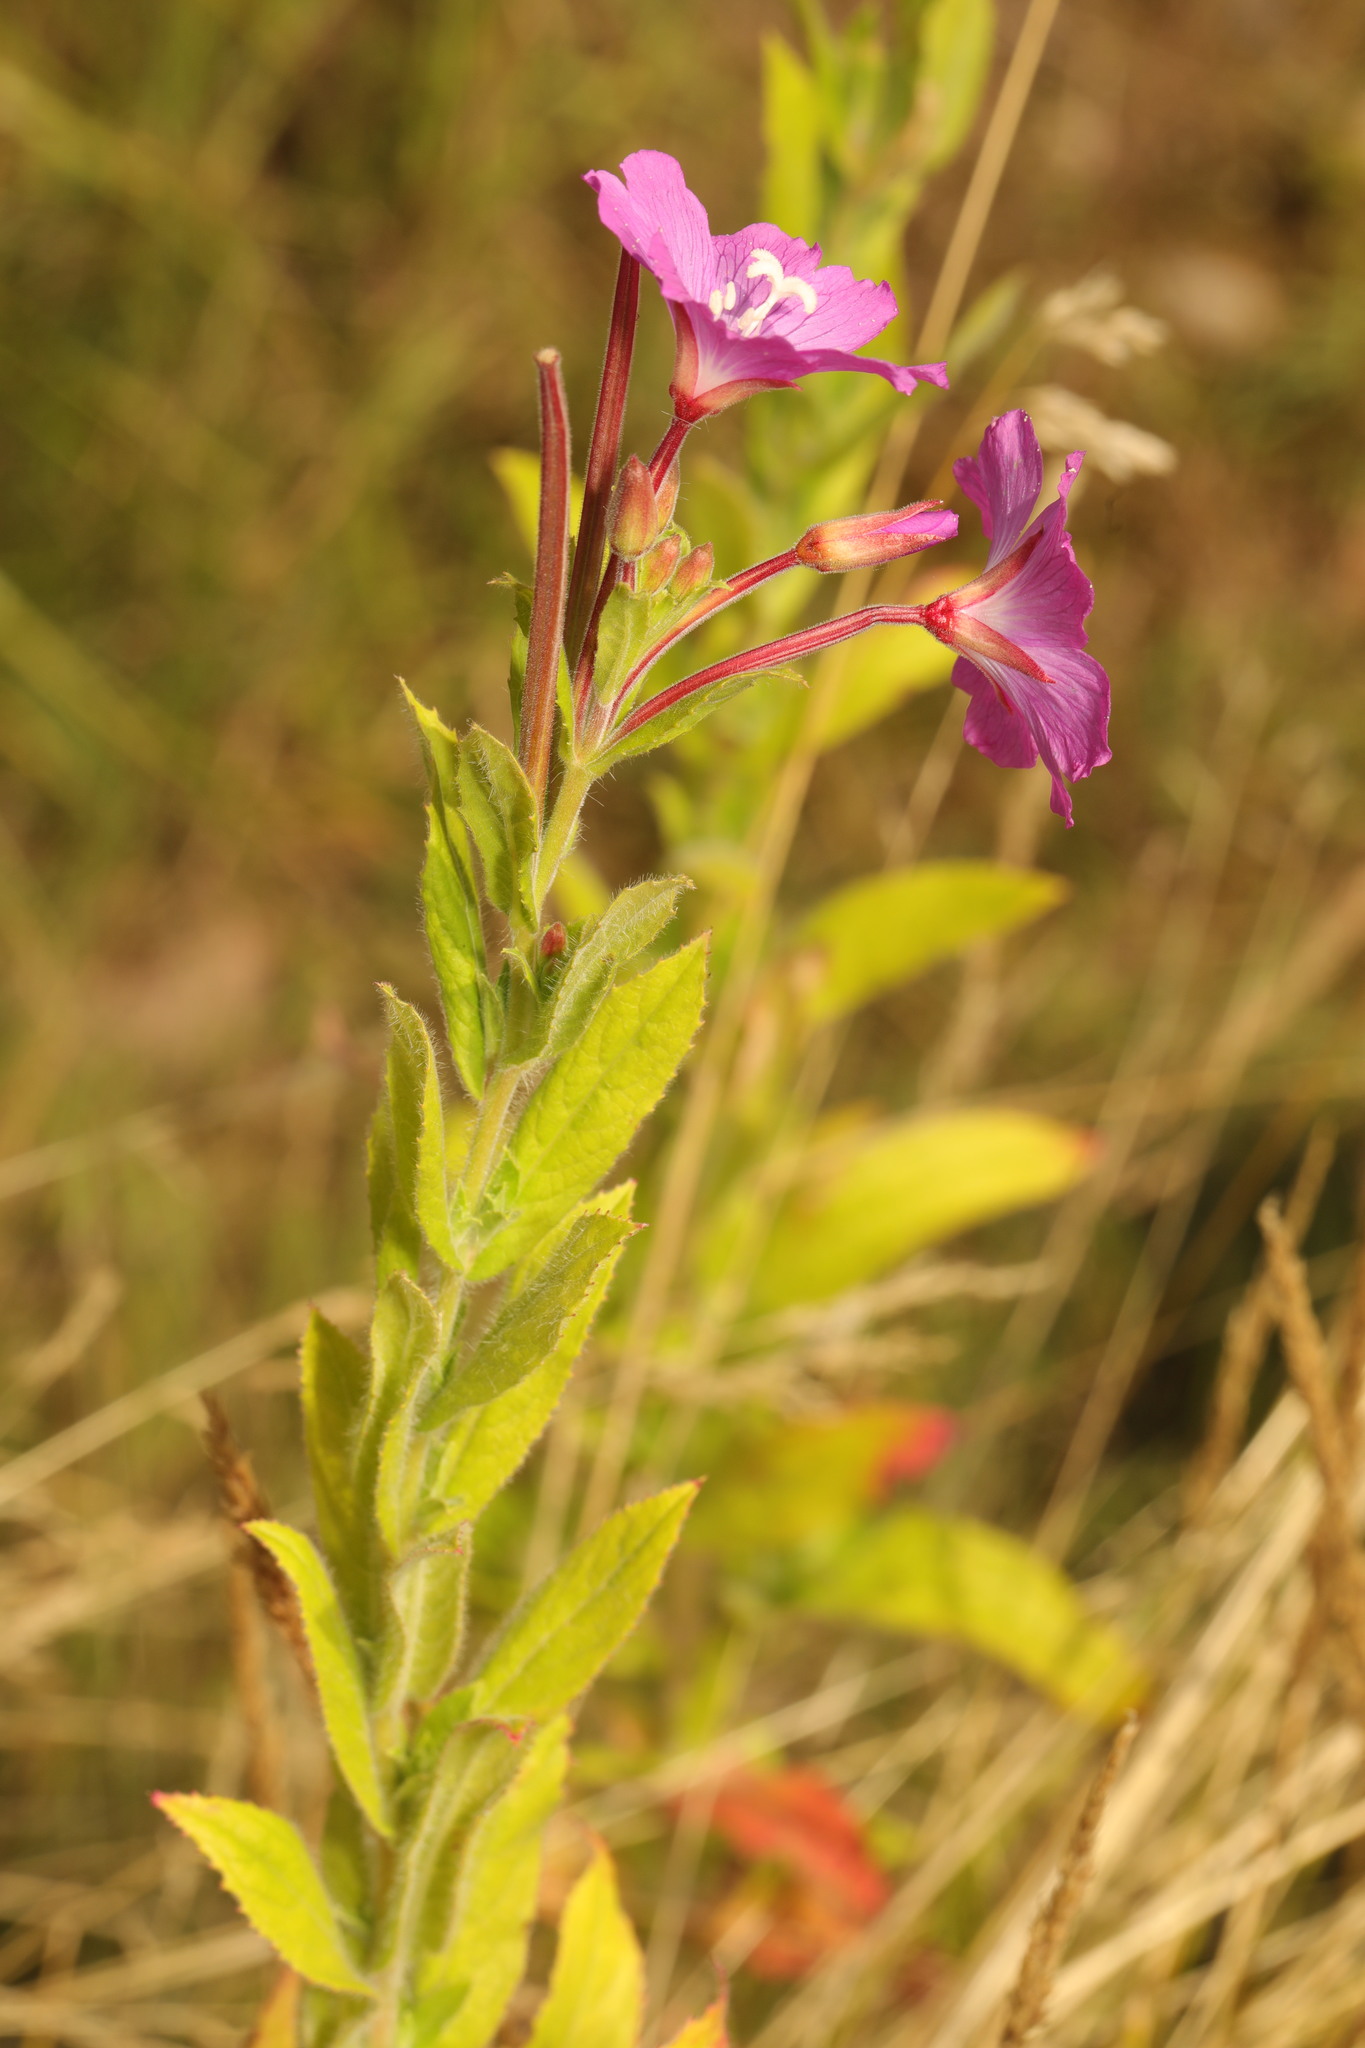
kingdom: Plantae
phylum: Tracheophyta
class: Magnoliopsida
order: Myrtales
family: Onagraceae
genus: Epilobium
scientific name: Epilobium hirsutum
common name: Great willowherb
